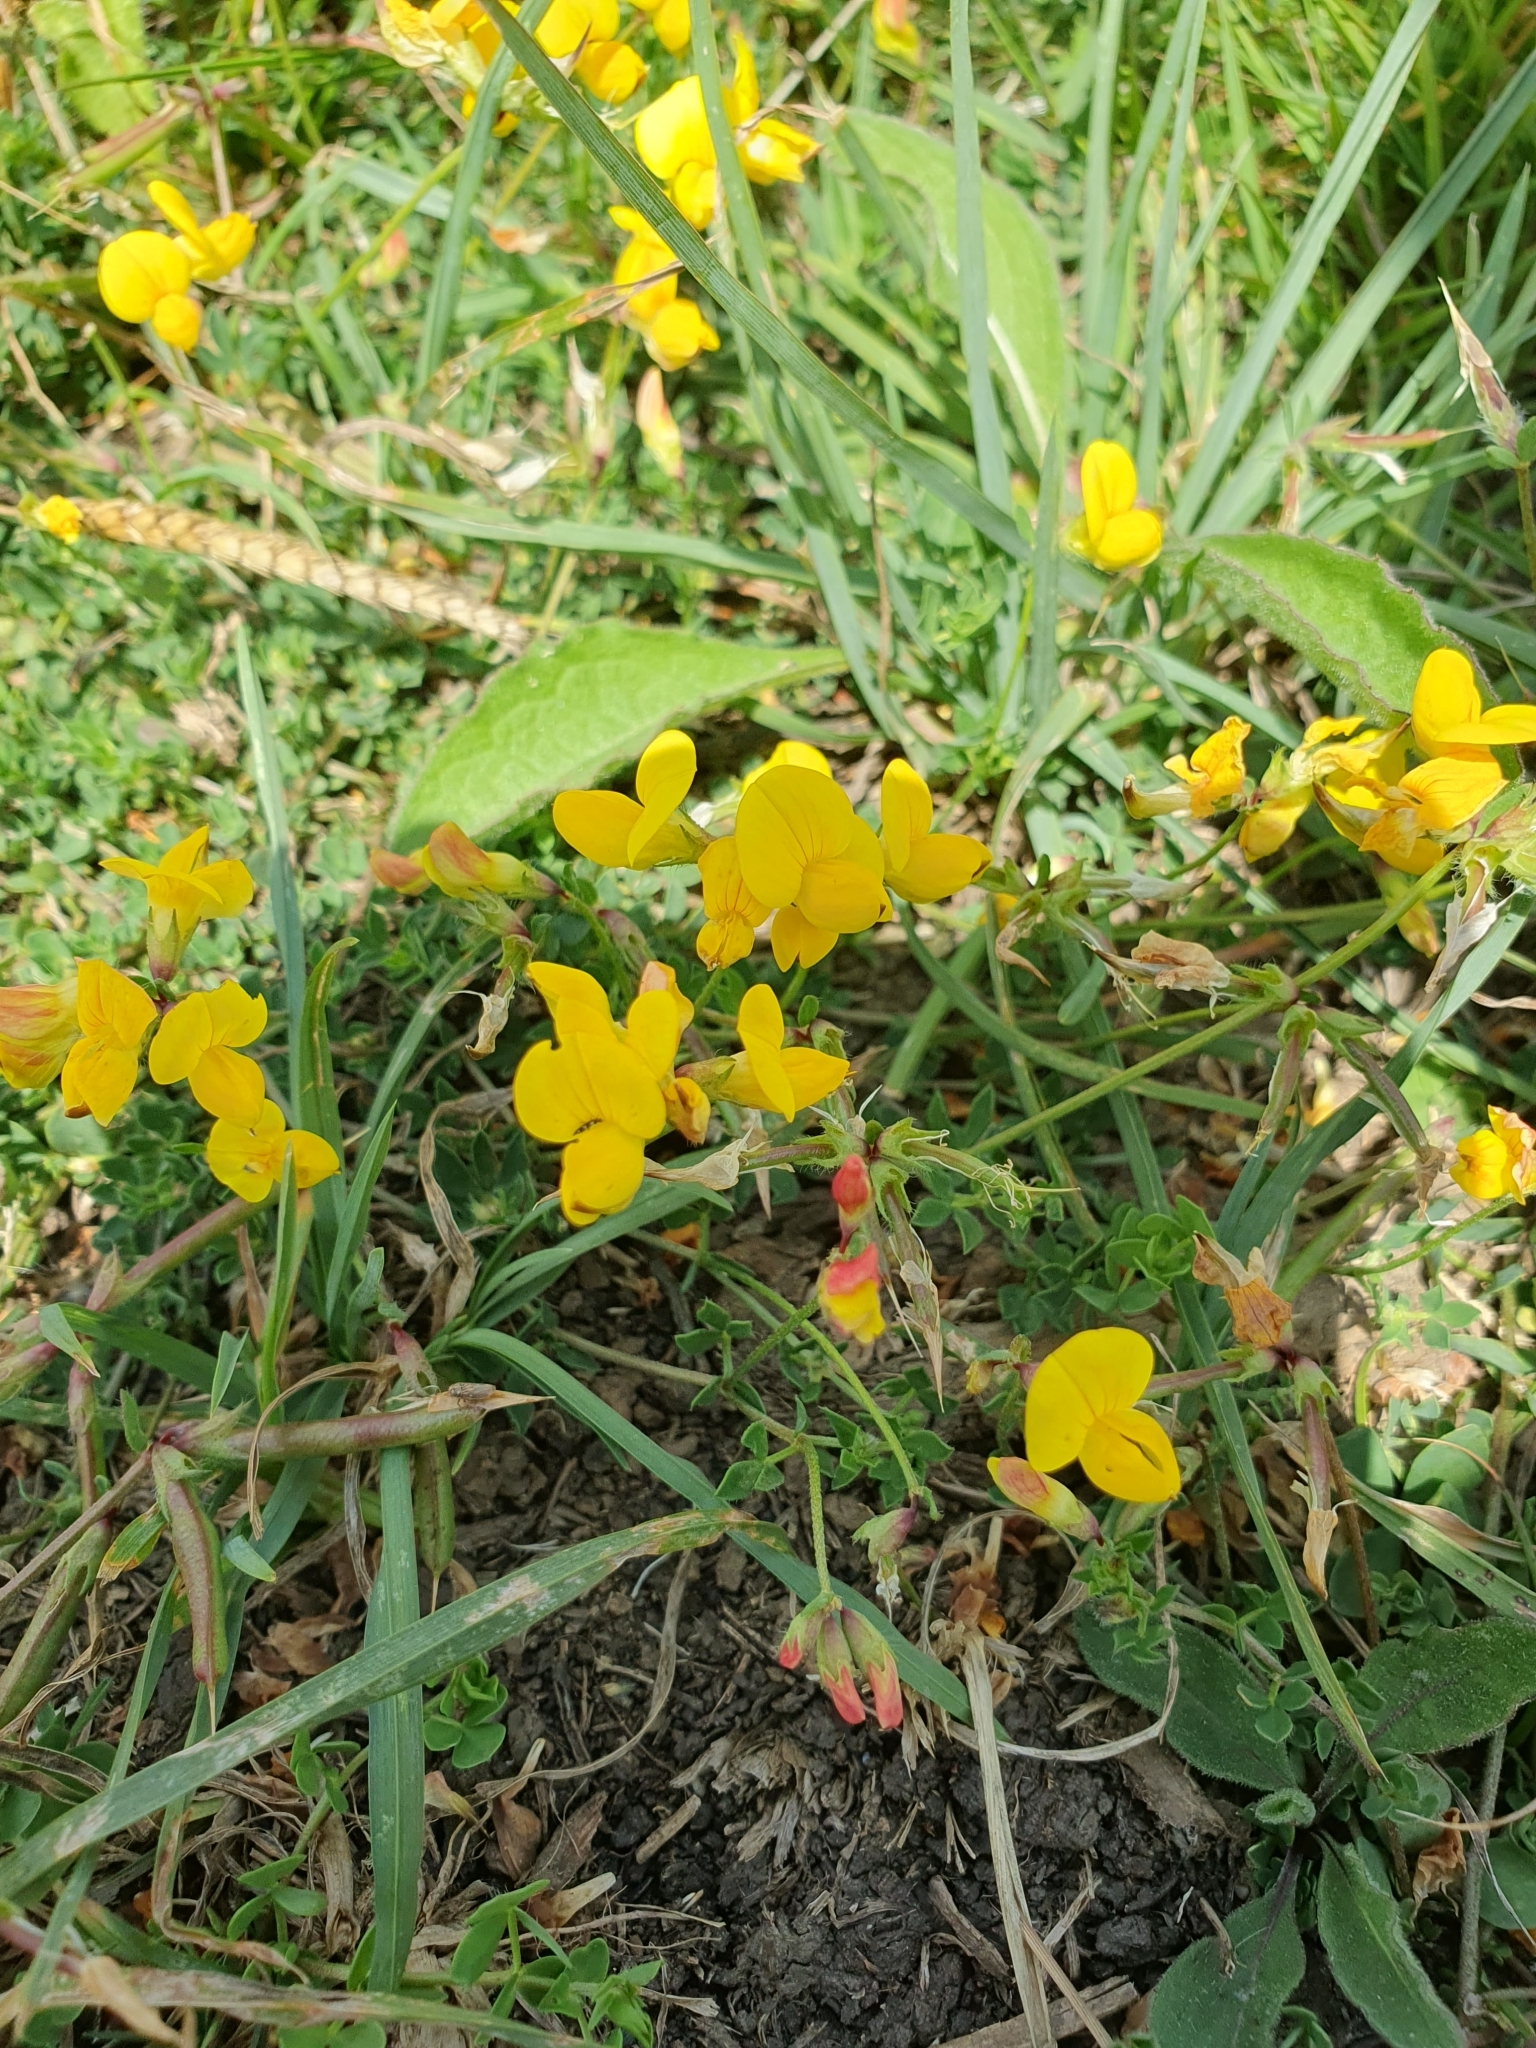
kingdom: Plantae
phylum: Tracheophyta
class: Magnoliopsida
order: Fabales
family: Fabaceae
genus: Lotus
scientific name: Lotus corniculatus
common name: Common bird's-foot-trefoil
